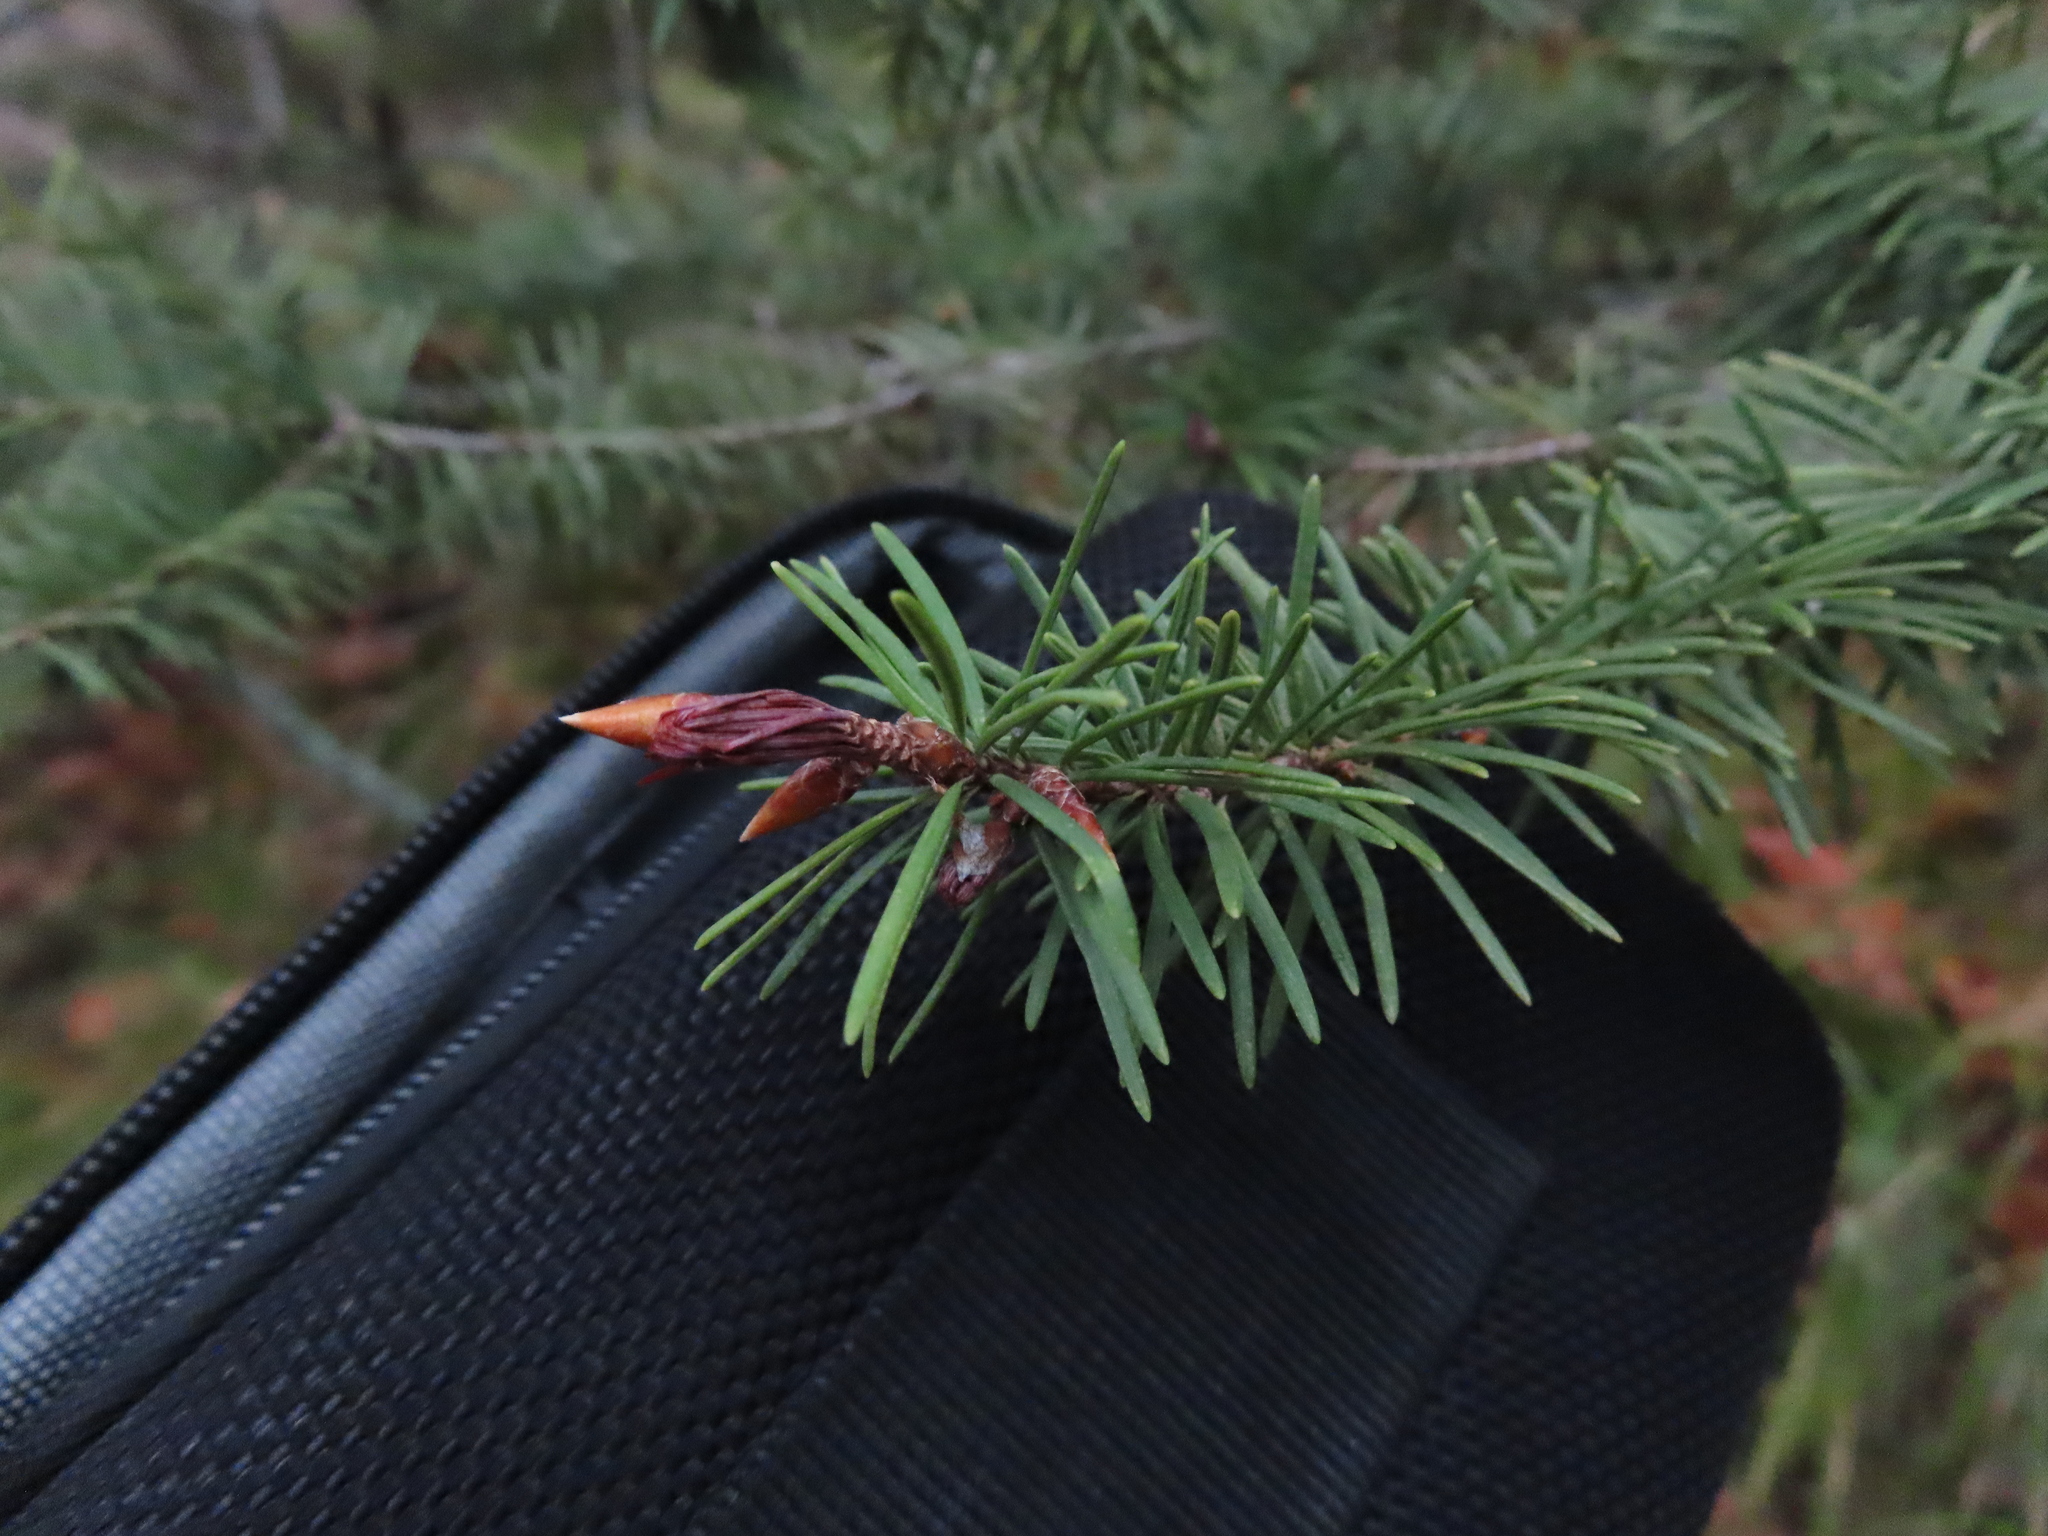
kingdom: Plantae
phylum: Tracheophyta
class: Pinopsida
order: Pinales
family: Pinaceae
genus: Pseudotsuga
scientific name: Pseudotsuga menziesii
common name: Douglas fir
